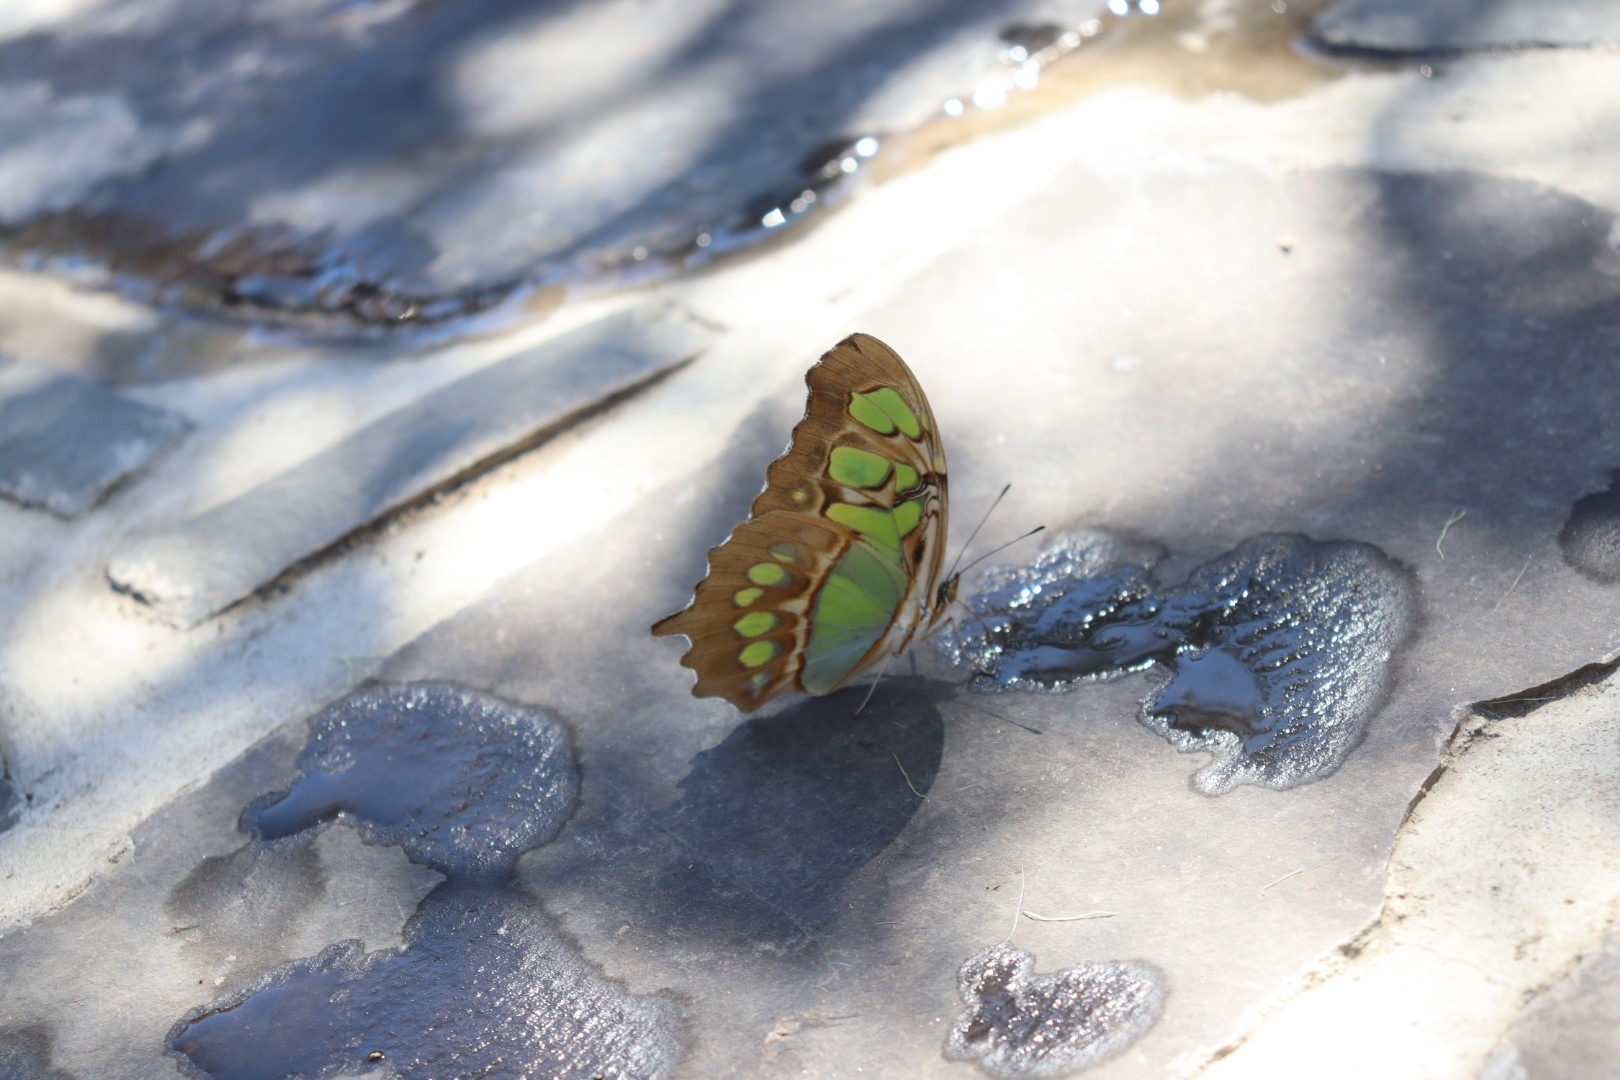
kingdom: Animalia
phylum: Arthropoda
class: Insecta
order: Lepidoptera
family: Nymphalidae
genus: Siproeta
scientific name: Siproeta stelenes
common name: Malachite
